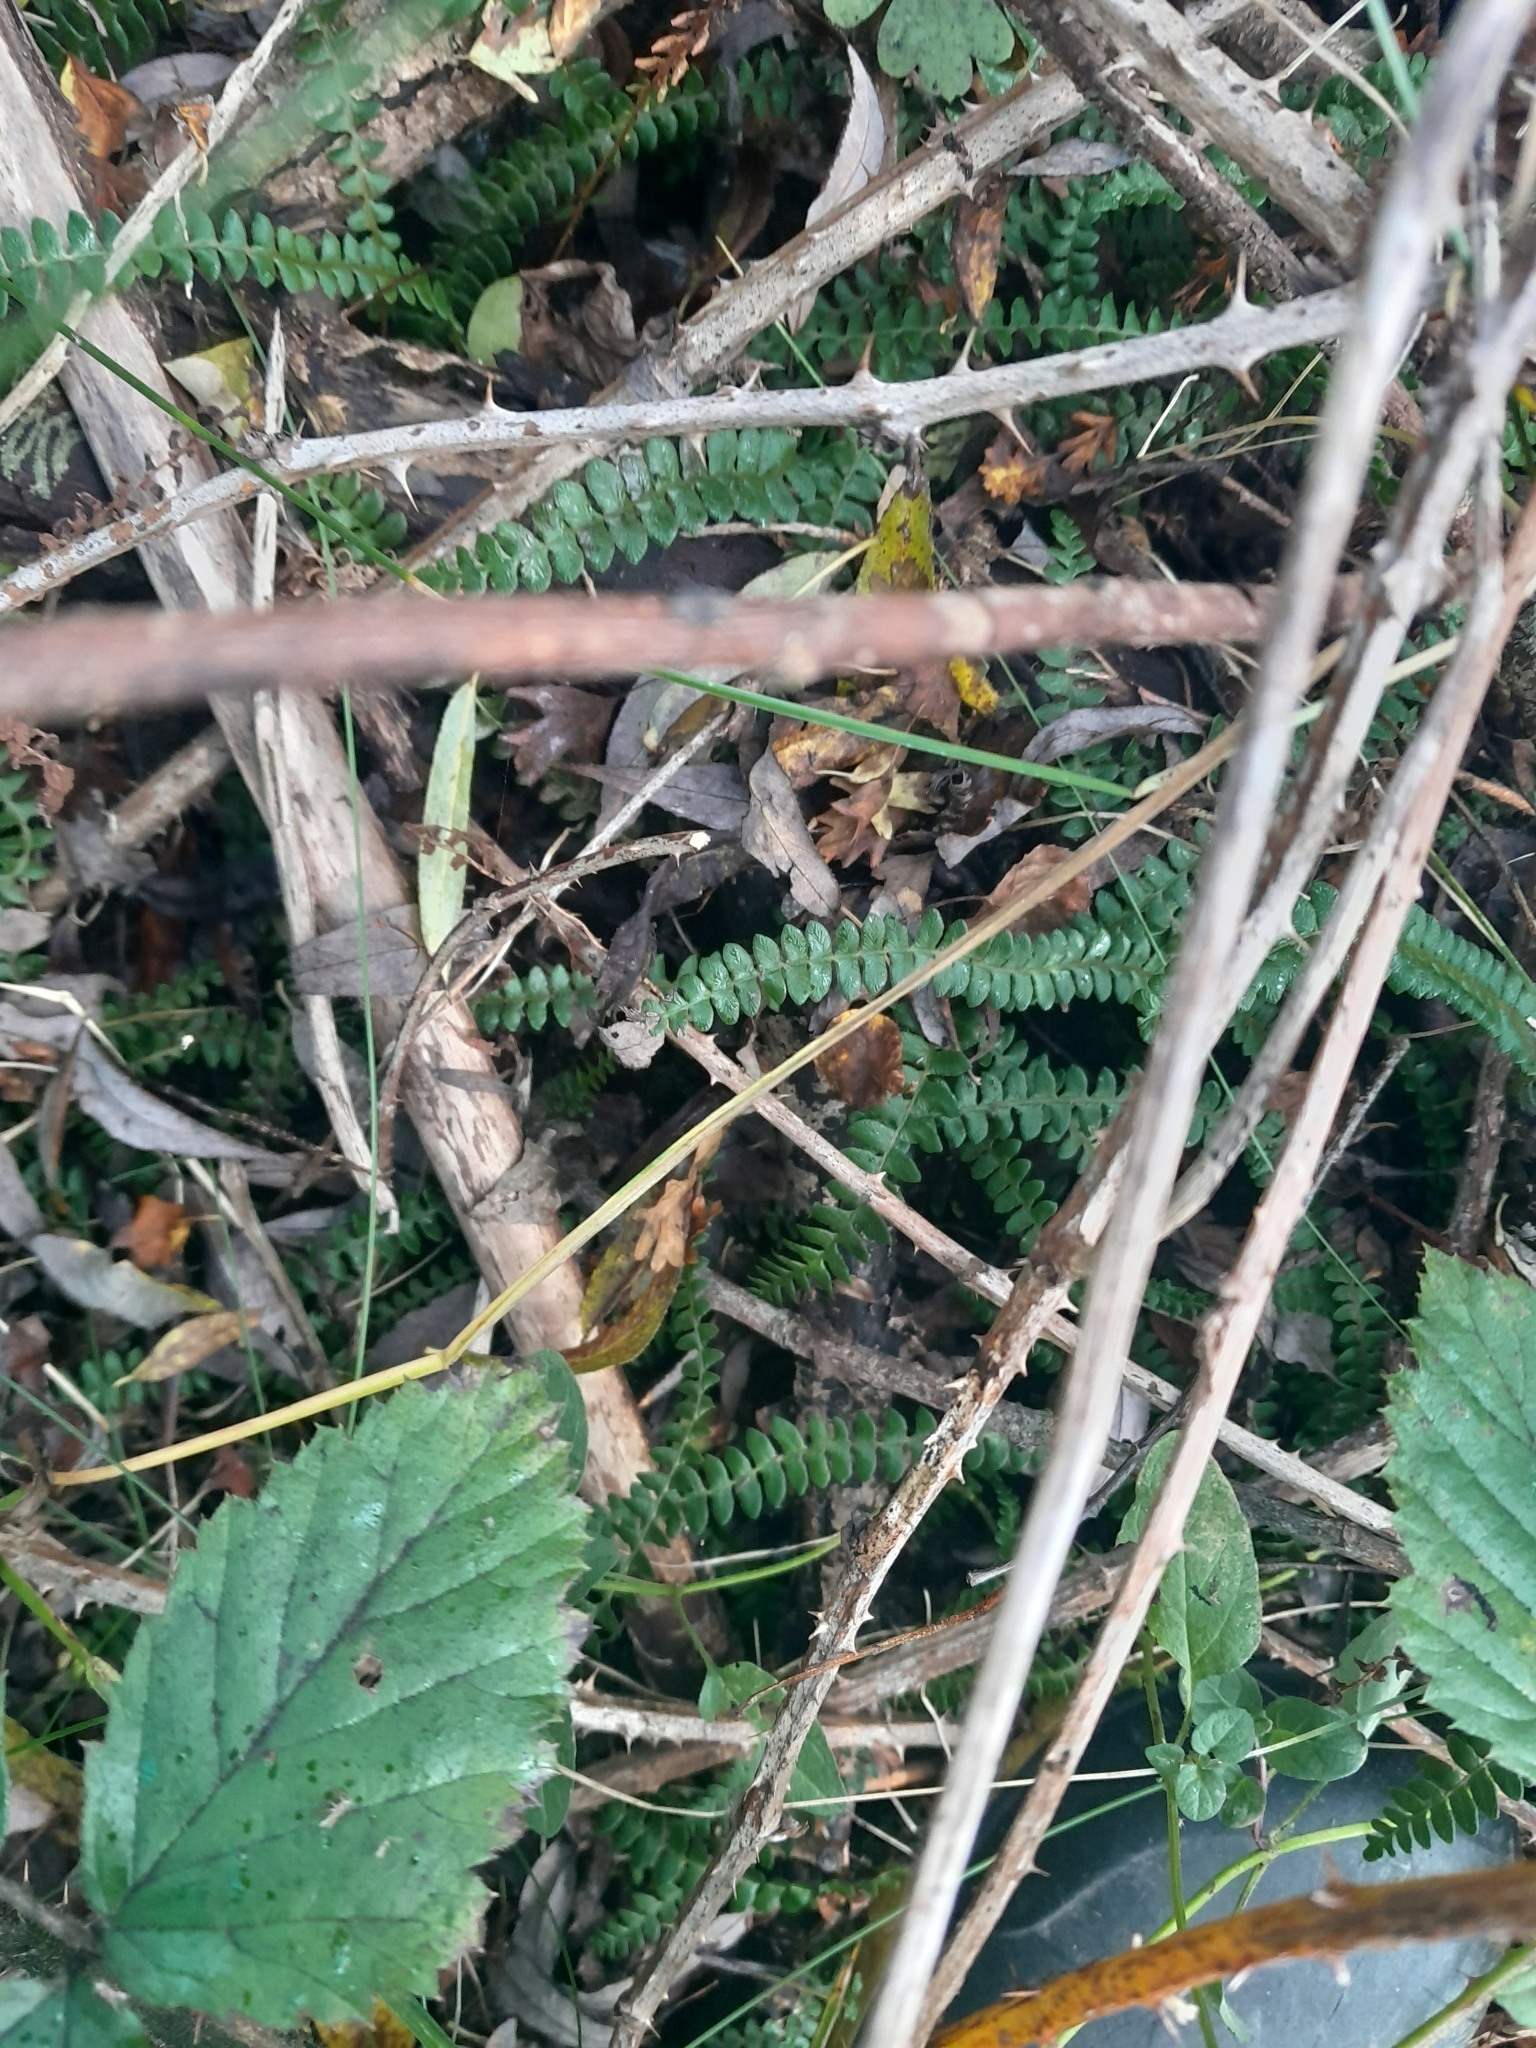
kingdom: Plantae
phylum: Tracheophyta
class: Polypodiopsida
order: Polypodiales
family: Blechnaceae
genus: Austroblechnum
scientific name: Austroblechnum penna-marina
